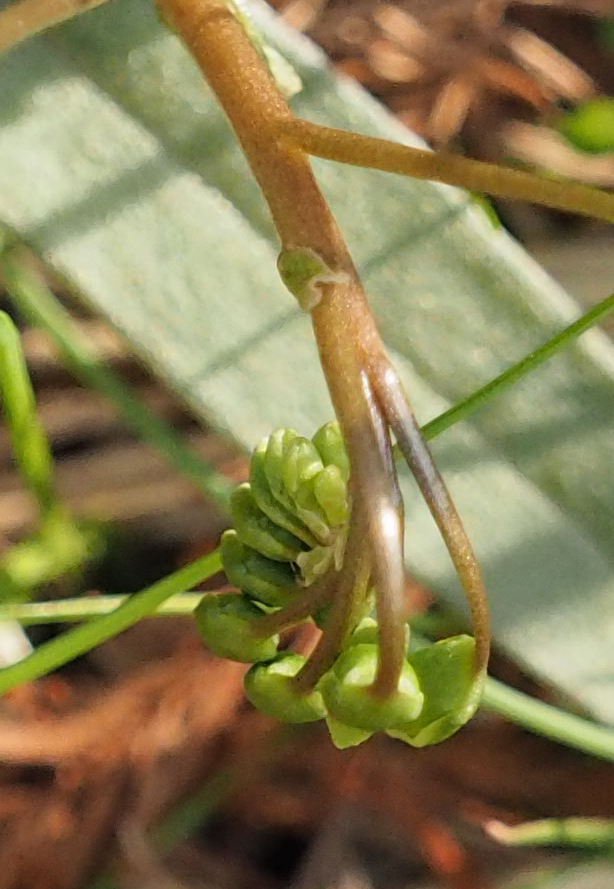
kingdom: Plantae
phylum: Tracheophyta
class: Magnoliopsida
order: Caryophyllales
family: Montiaceae
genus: Claytonia
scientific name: Claytonia virginica
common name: Virginia springbeauty
